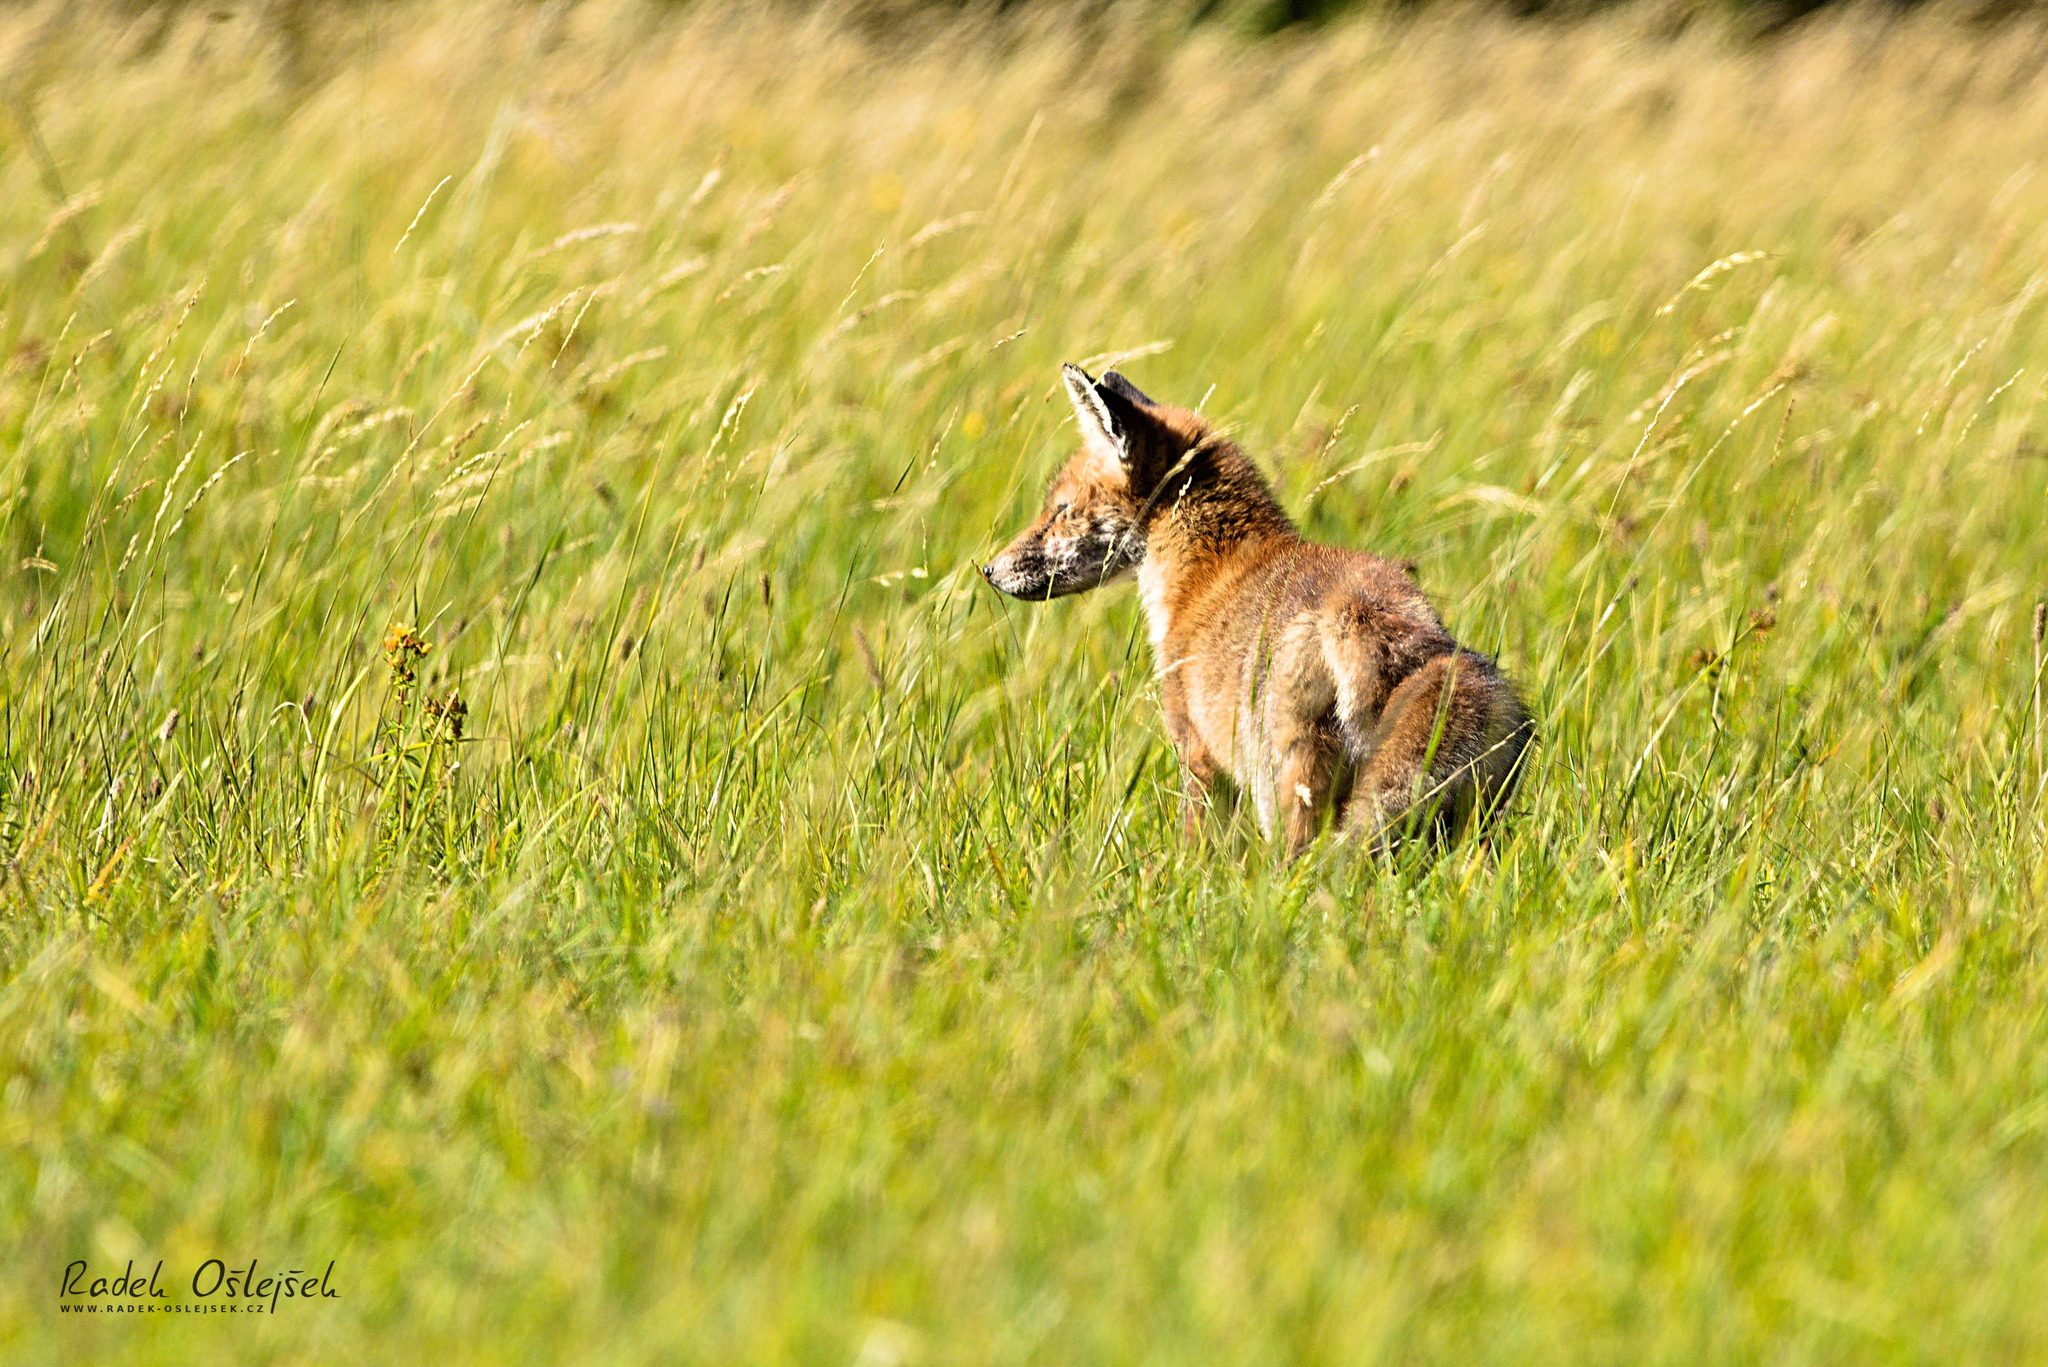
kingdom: Animalia
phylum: Chordata
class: Mammalia
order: Carnivora
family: Canidae
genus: Vulpes
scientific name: Vulpes vulpes
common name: Red fox
